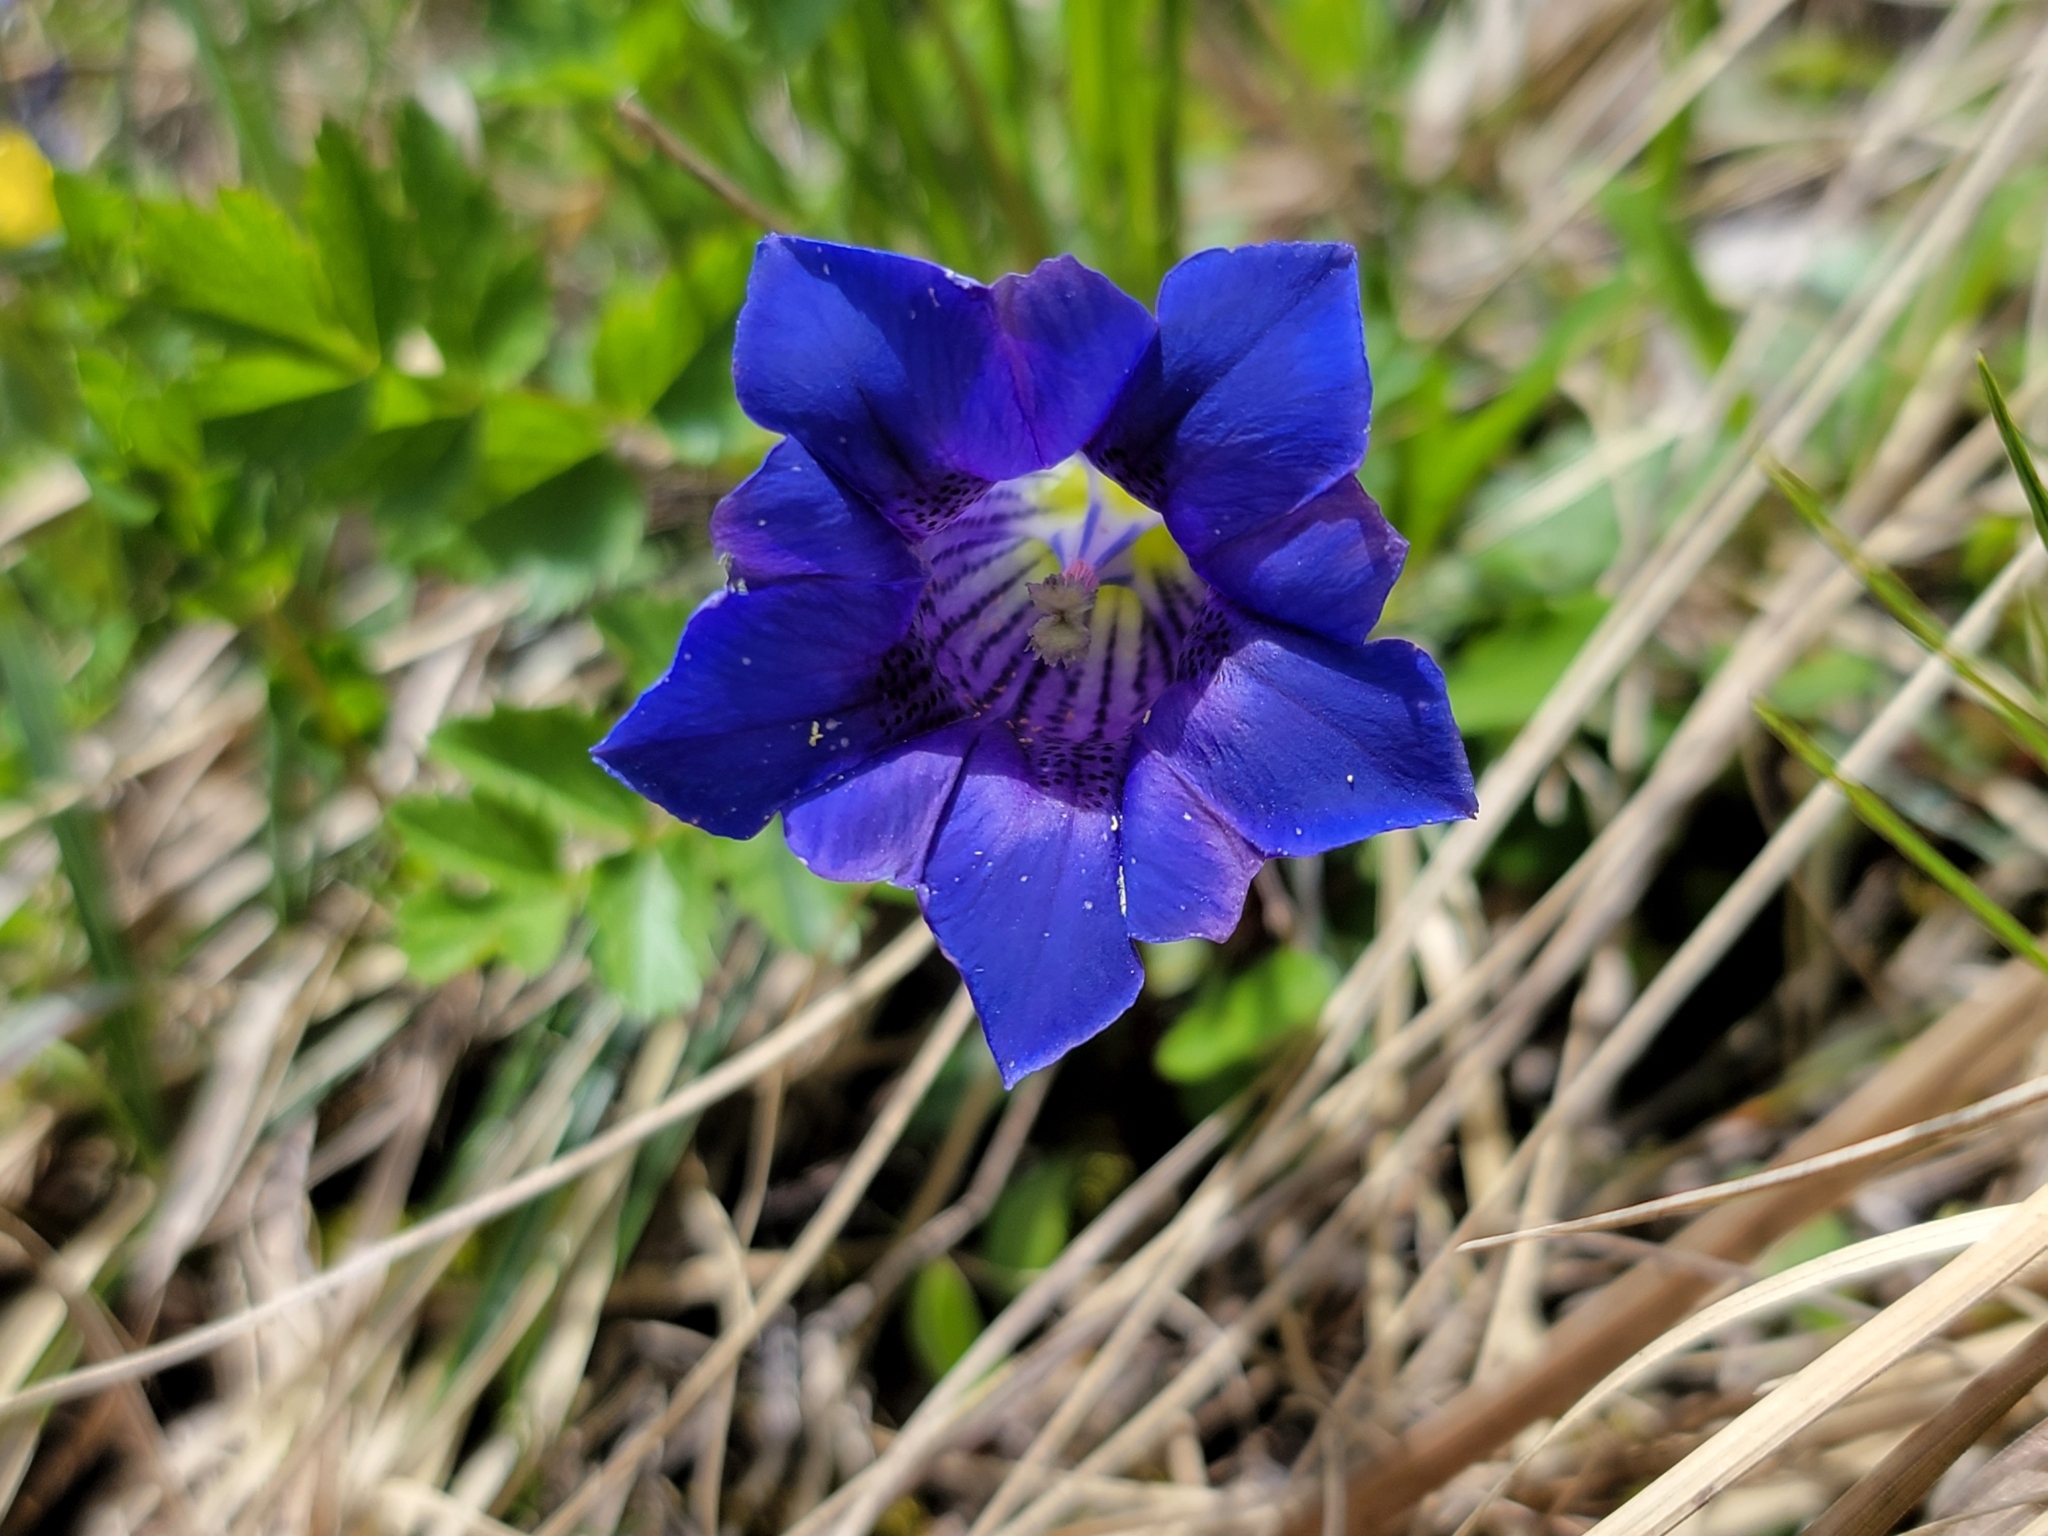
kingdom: Plantae
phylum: Tracheophyta
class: Magnoliopsida
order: Gentianales
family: Gentianaceae
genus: Gentiana
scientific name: Gentiana clusii
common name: Trumpet gentian
